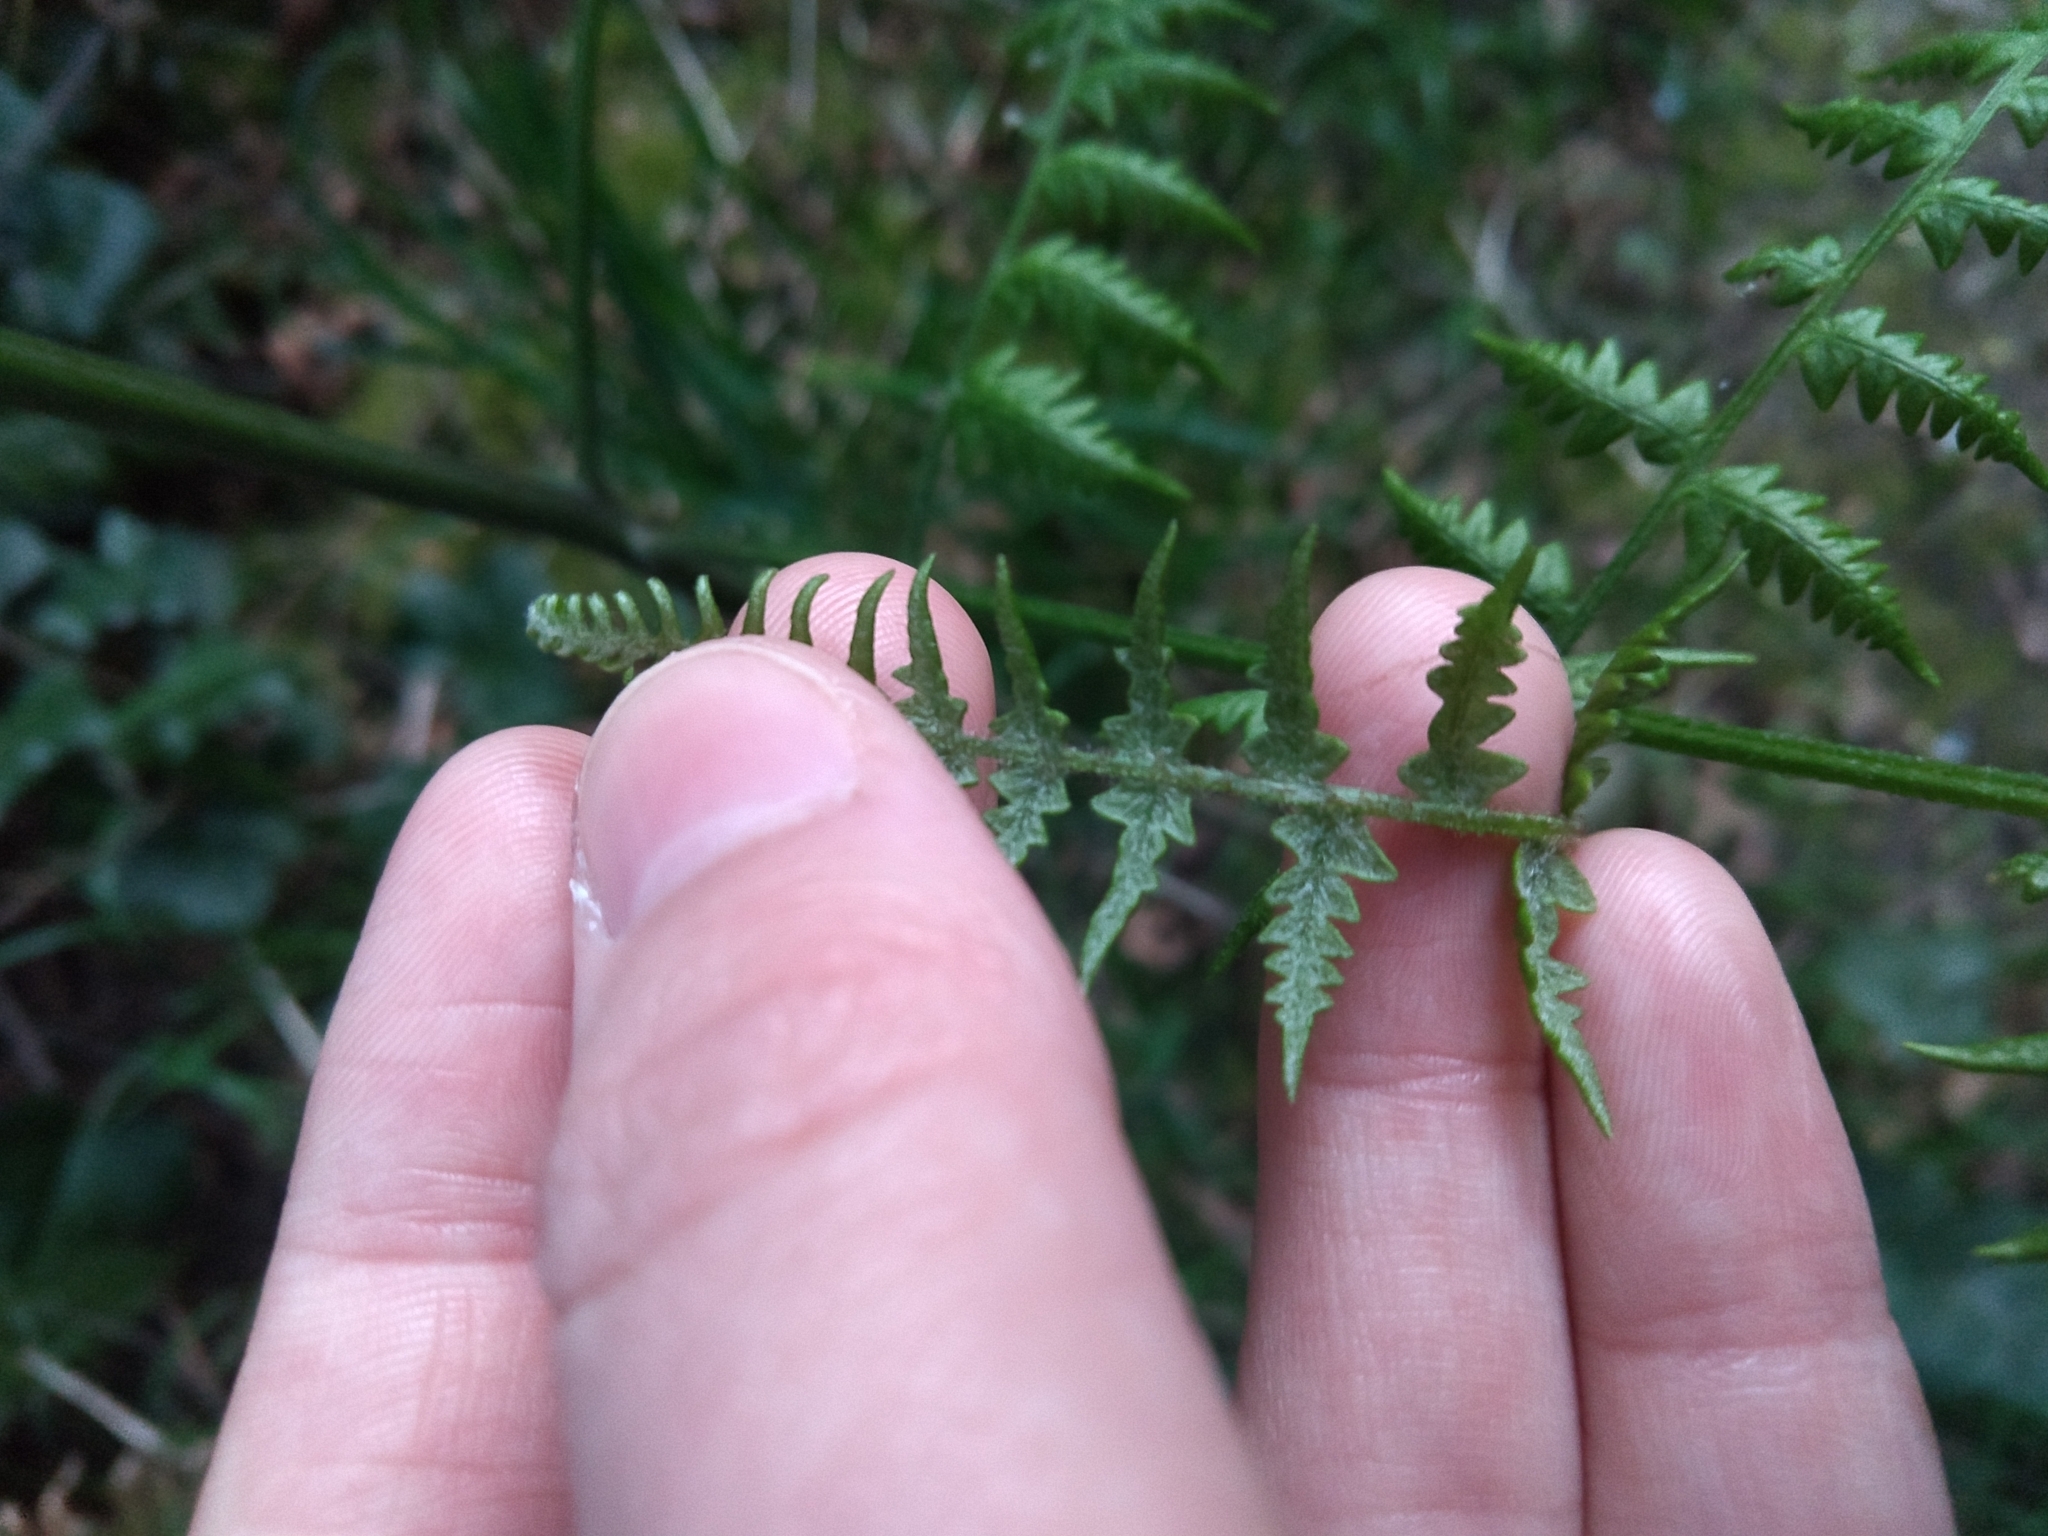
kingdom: Plantae
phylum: Tracheophyta
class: Polypodiopsida
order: Polypodiales
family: Dennstaedtiaceae
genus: Pteridium
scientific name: Pteridium aquilinum
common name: Bracken
